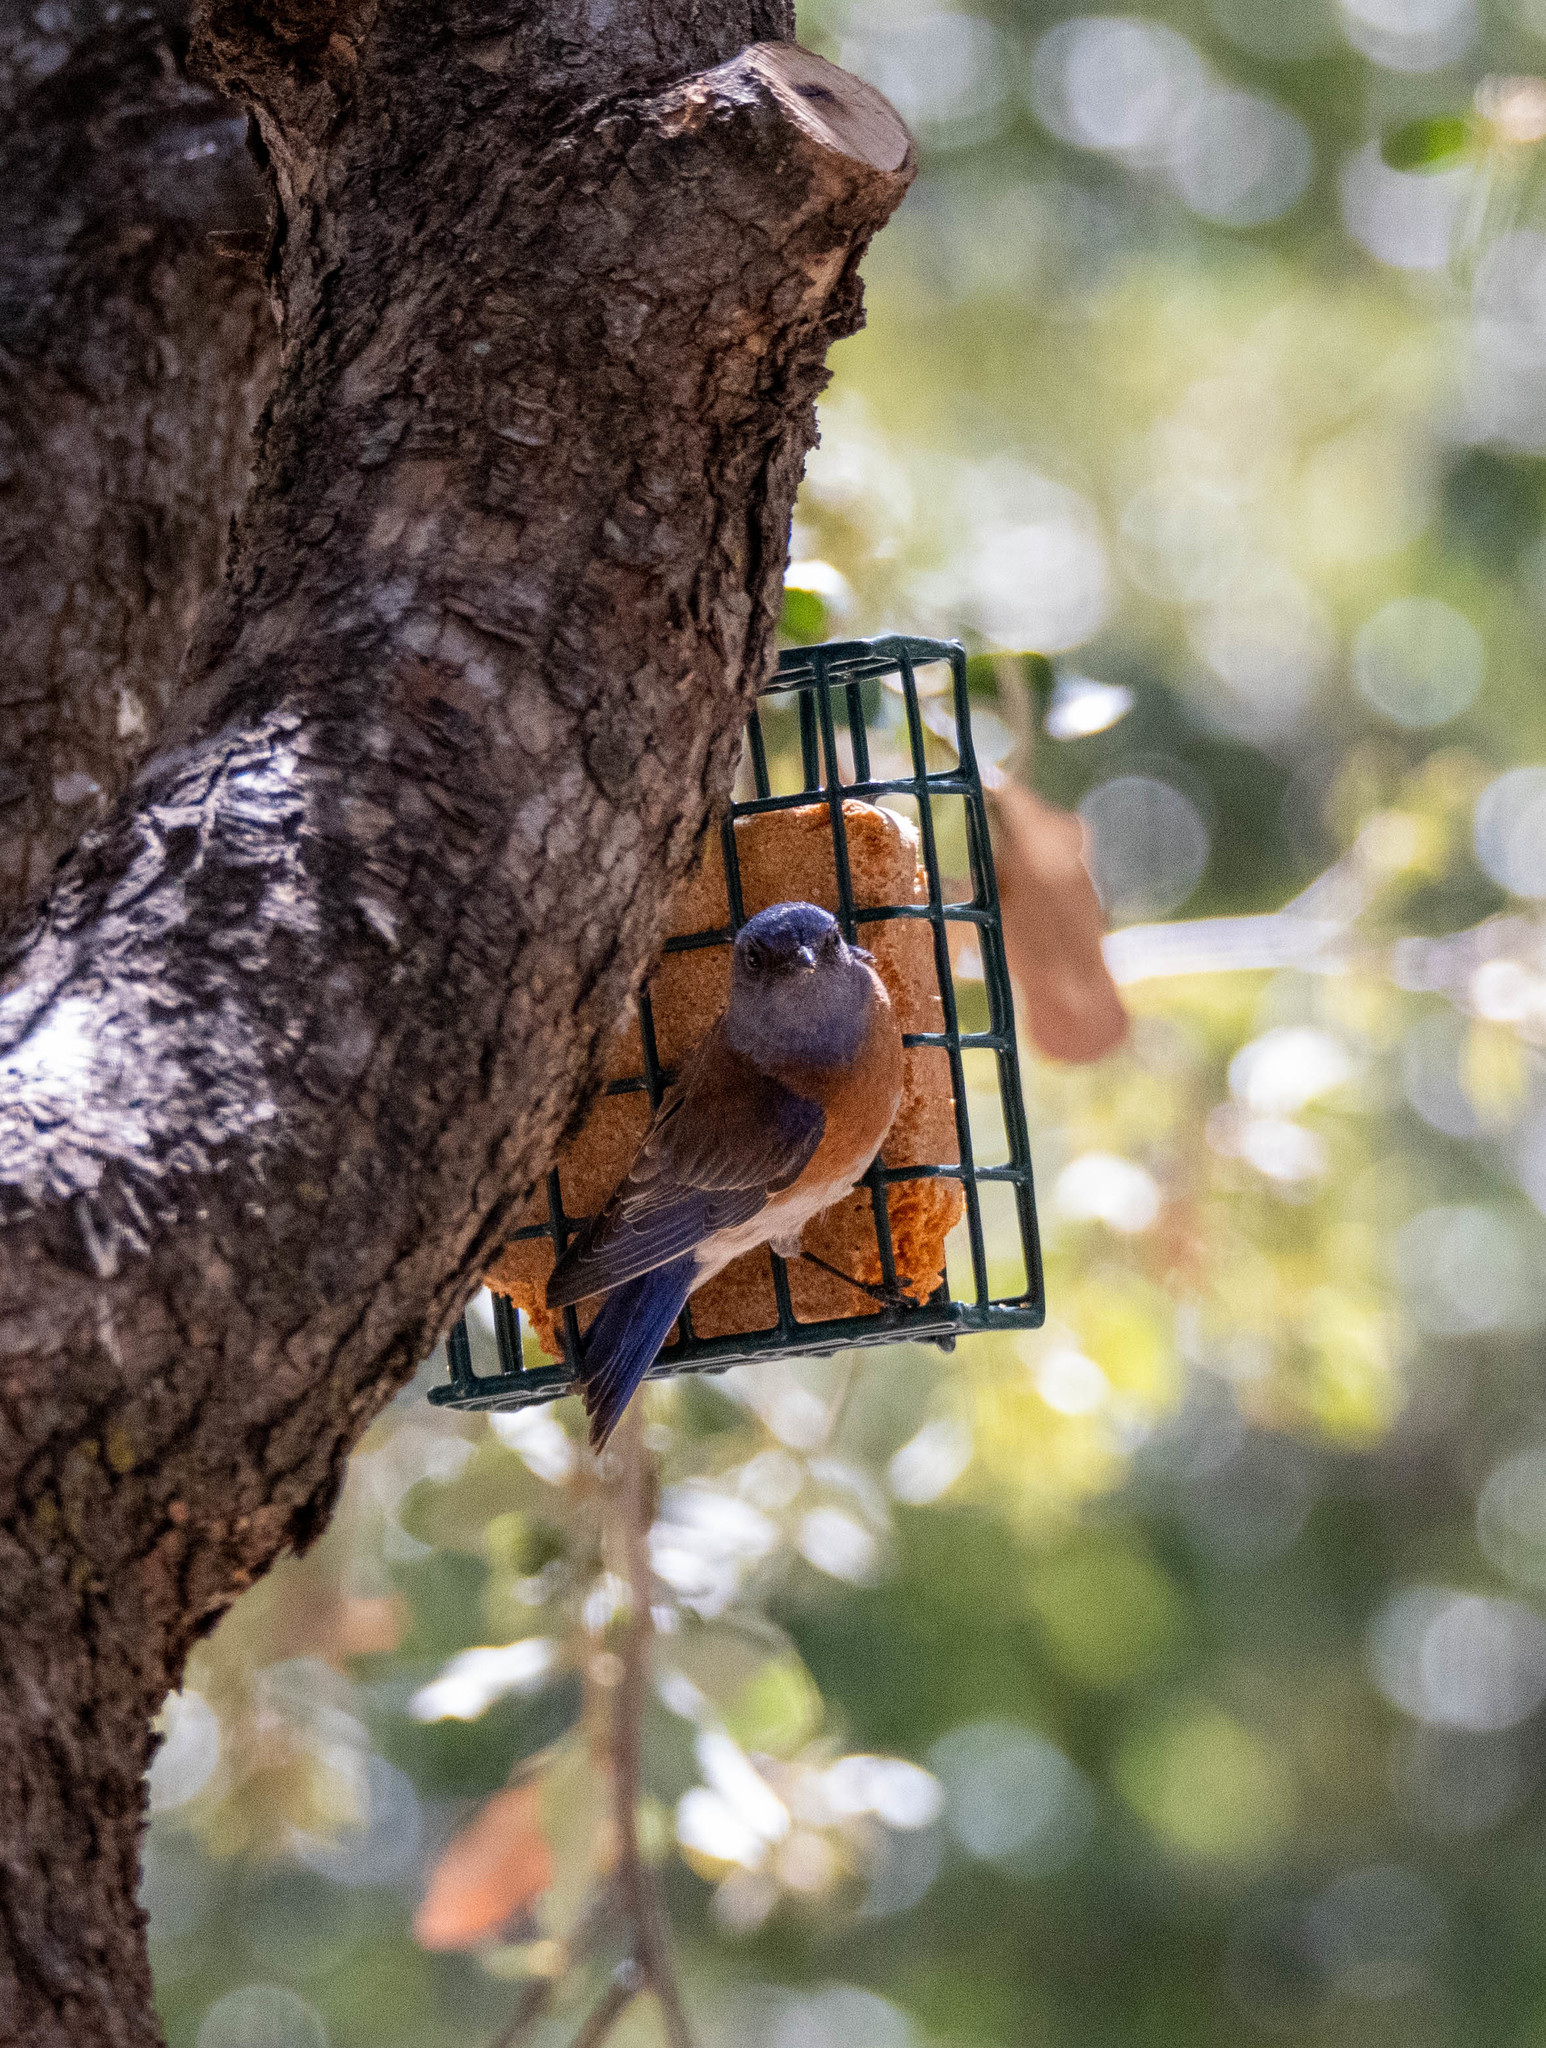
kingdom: Animalia
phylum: Chordata
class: Aves
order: Passeriformes
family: Turdidae
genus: Sialia
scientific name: Sialia mexicana
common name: Western bluebird
